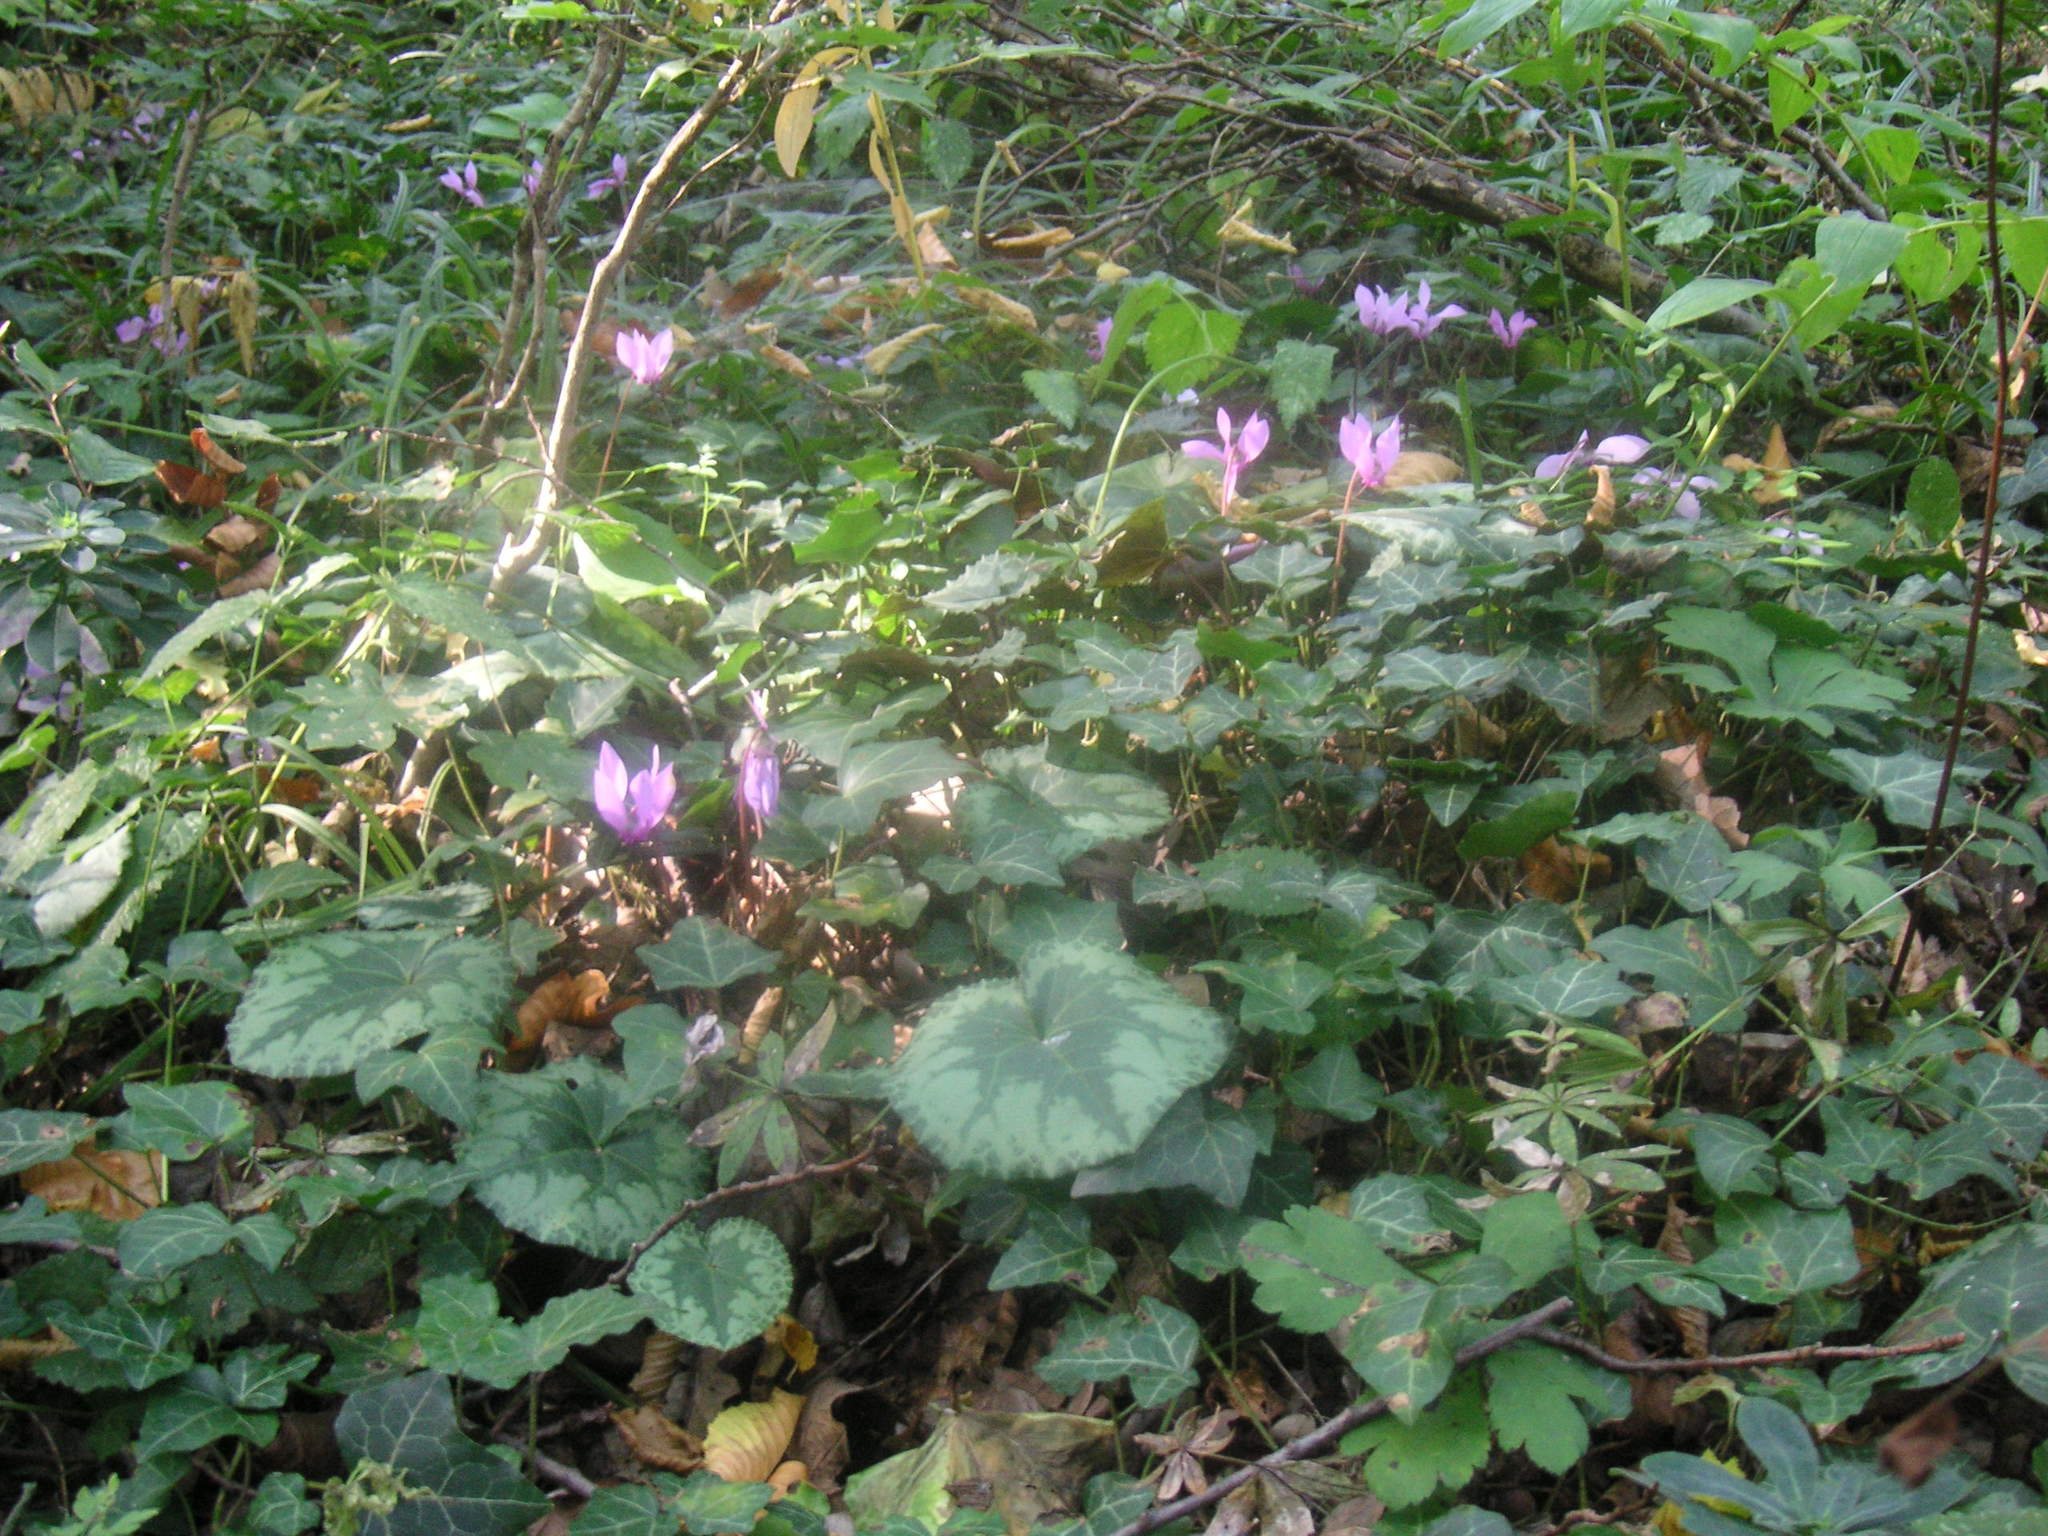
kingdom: Plantae
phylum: Tracheophyta
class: Magnoliopsida
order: Ericales
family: Primulaceae
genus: Cyclamen
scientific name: Cyclamen purpurascens
